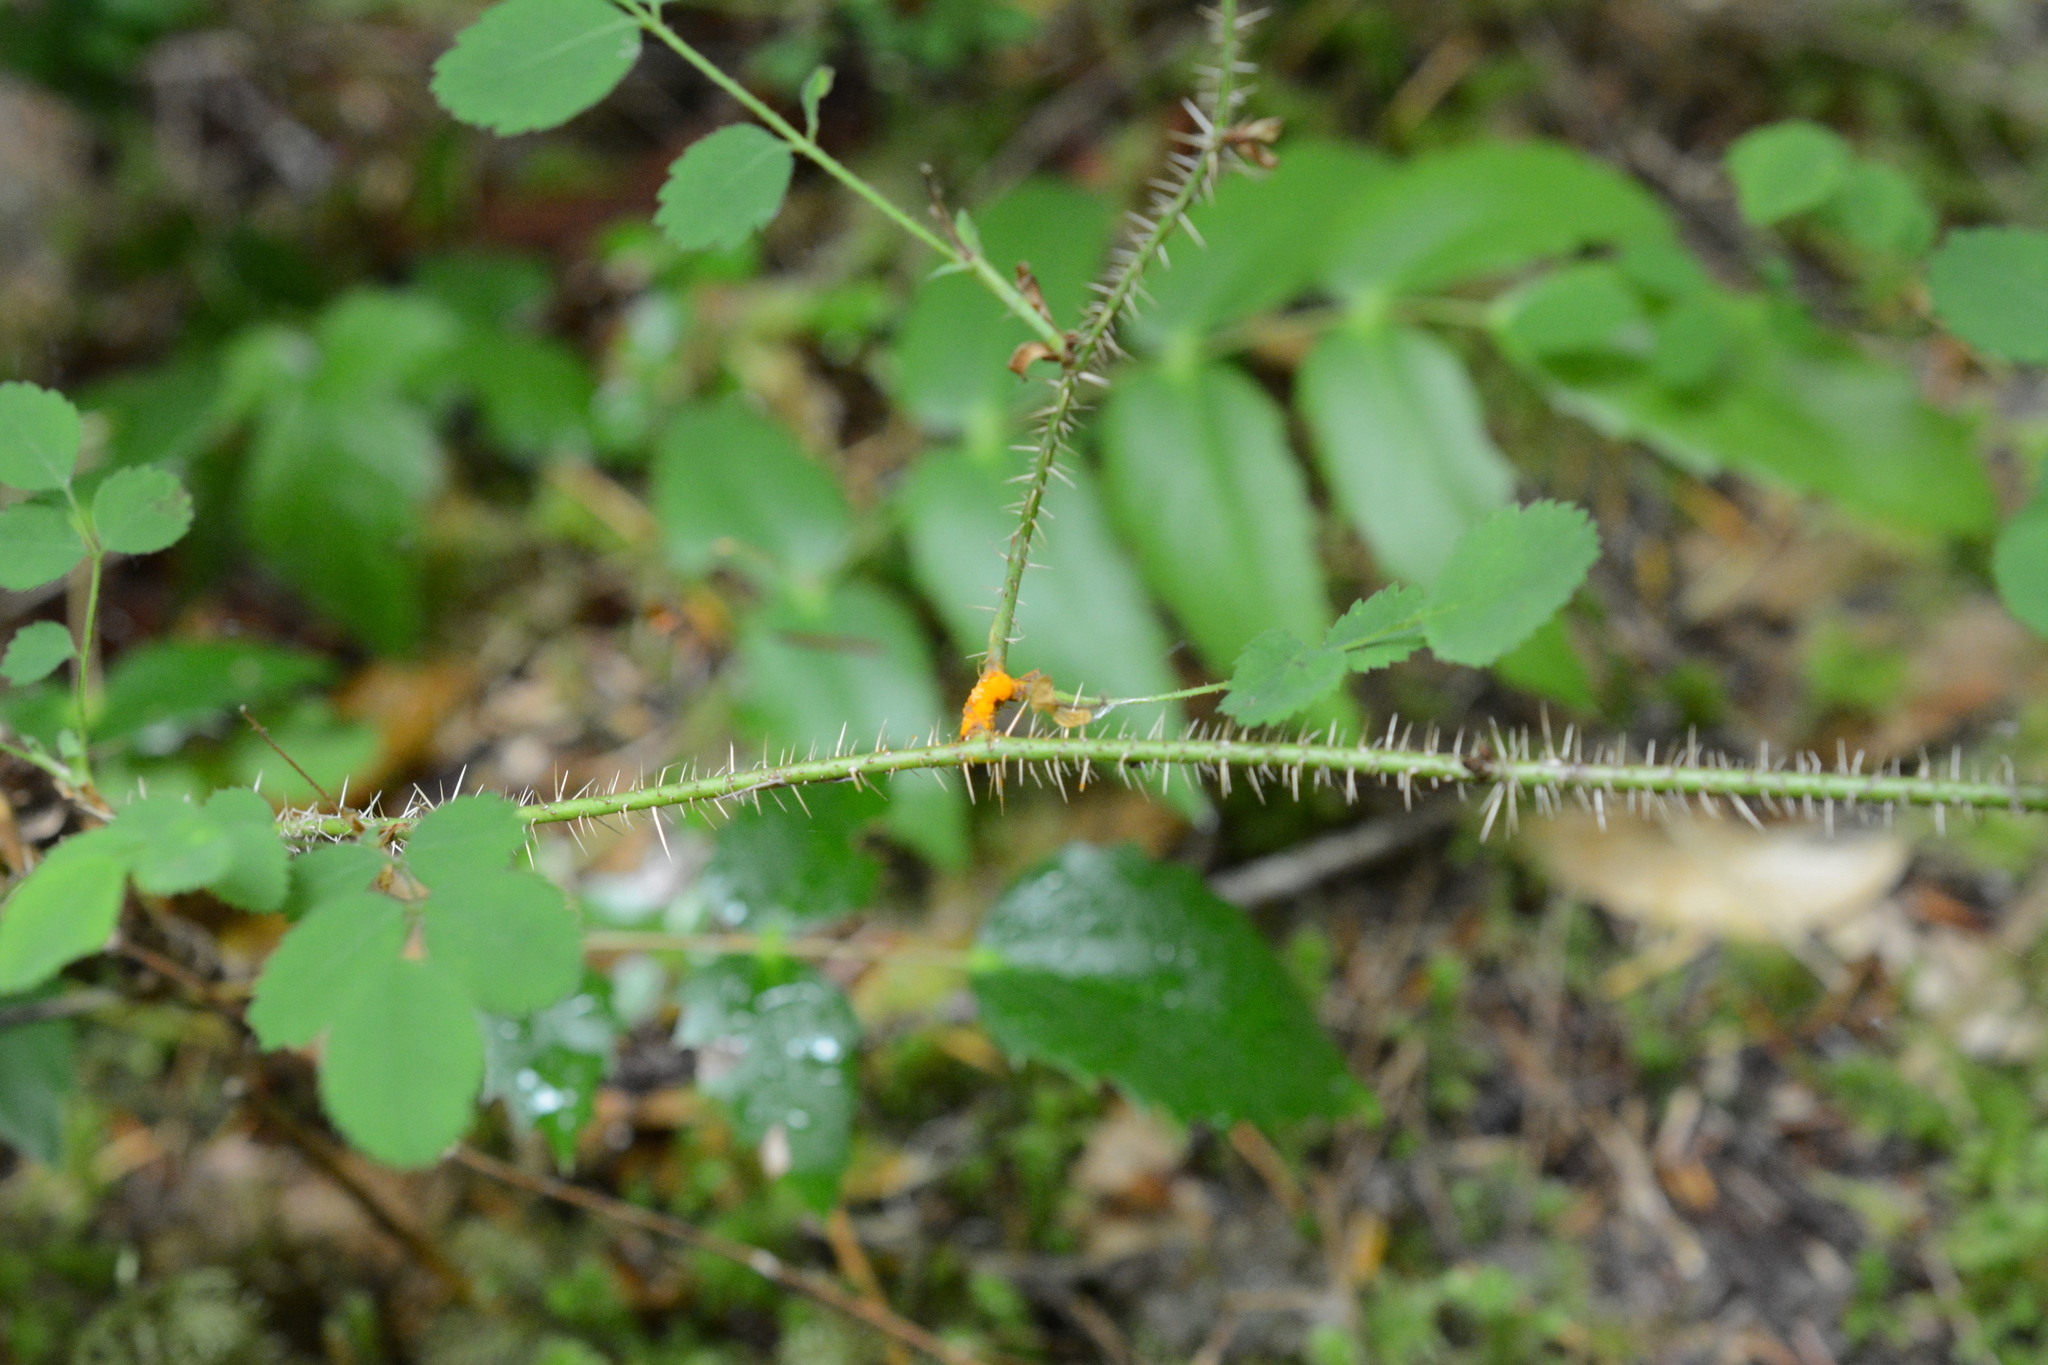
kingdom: Plantae
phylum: Tracheophyta
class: Magnoliopsida
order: Rosales
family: Rosaceae
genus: Rosa
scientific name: Rosa gymnocarpa
